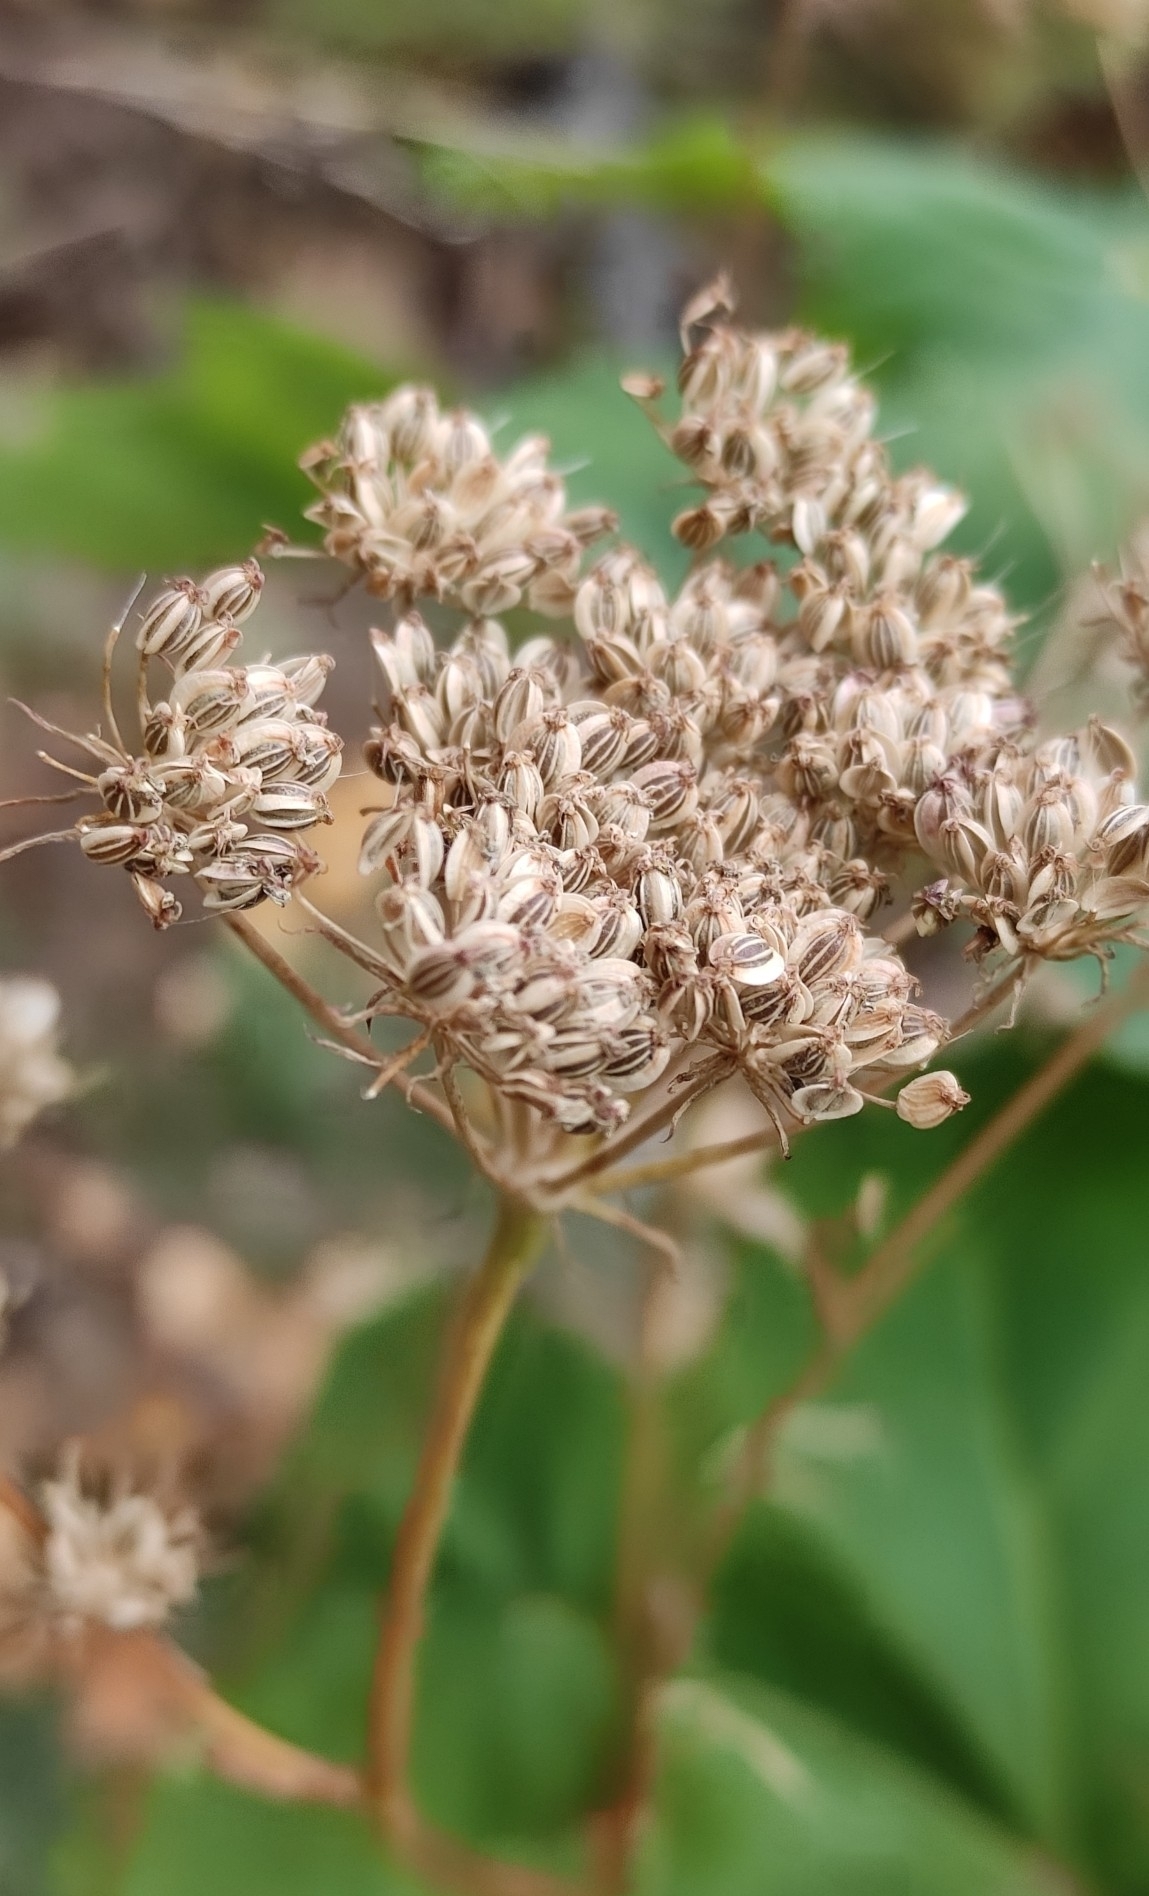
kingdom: Plantae
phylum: Tracheophyta
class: Magnoliopsida
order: Apiales
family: Apiaceae
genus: Heracleum
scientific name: Heracleum dissectum
